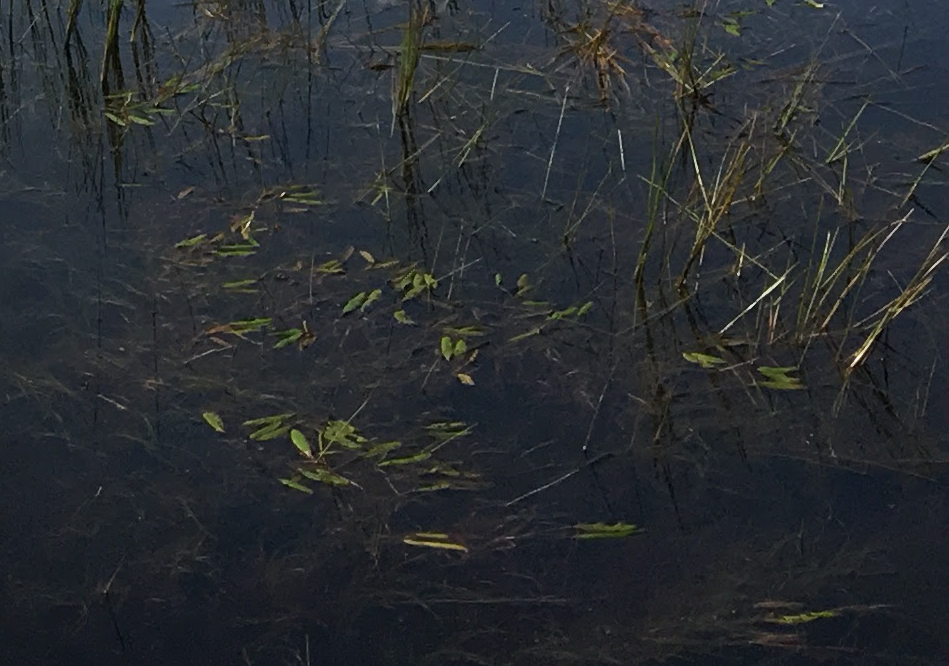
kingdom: Plantae
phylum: Tracheophyta
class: Liliopsida
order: Alismatales
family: Potamogetonaceae
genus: Potamogeton
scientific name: Potamogeton
